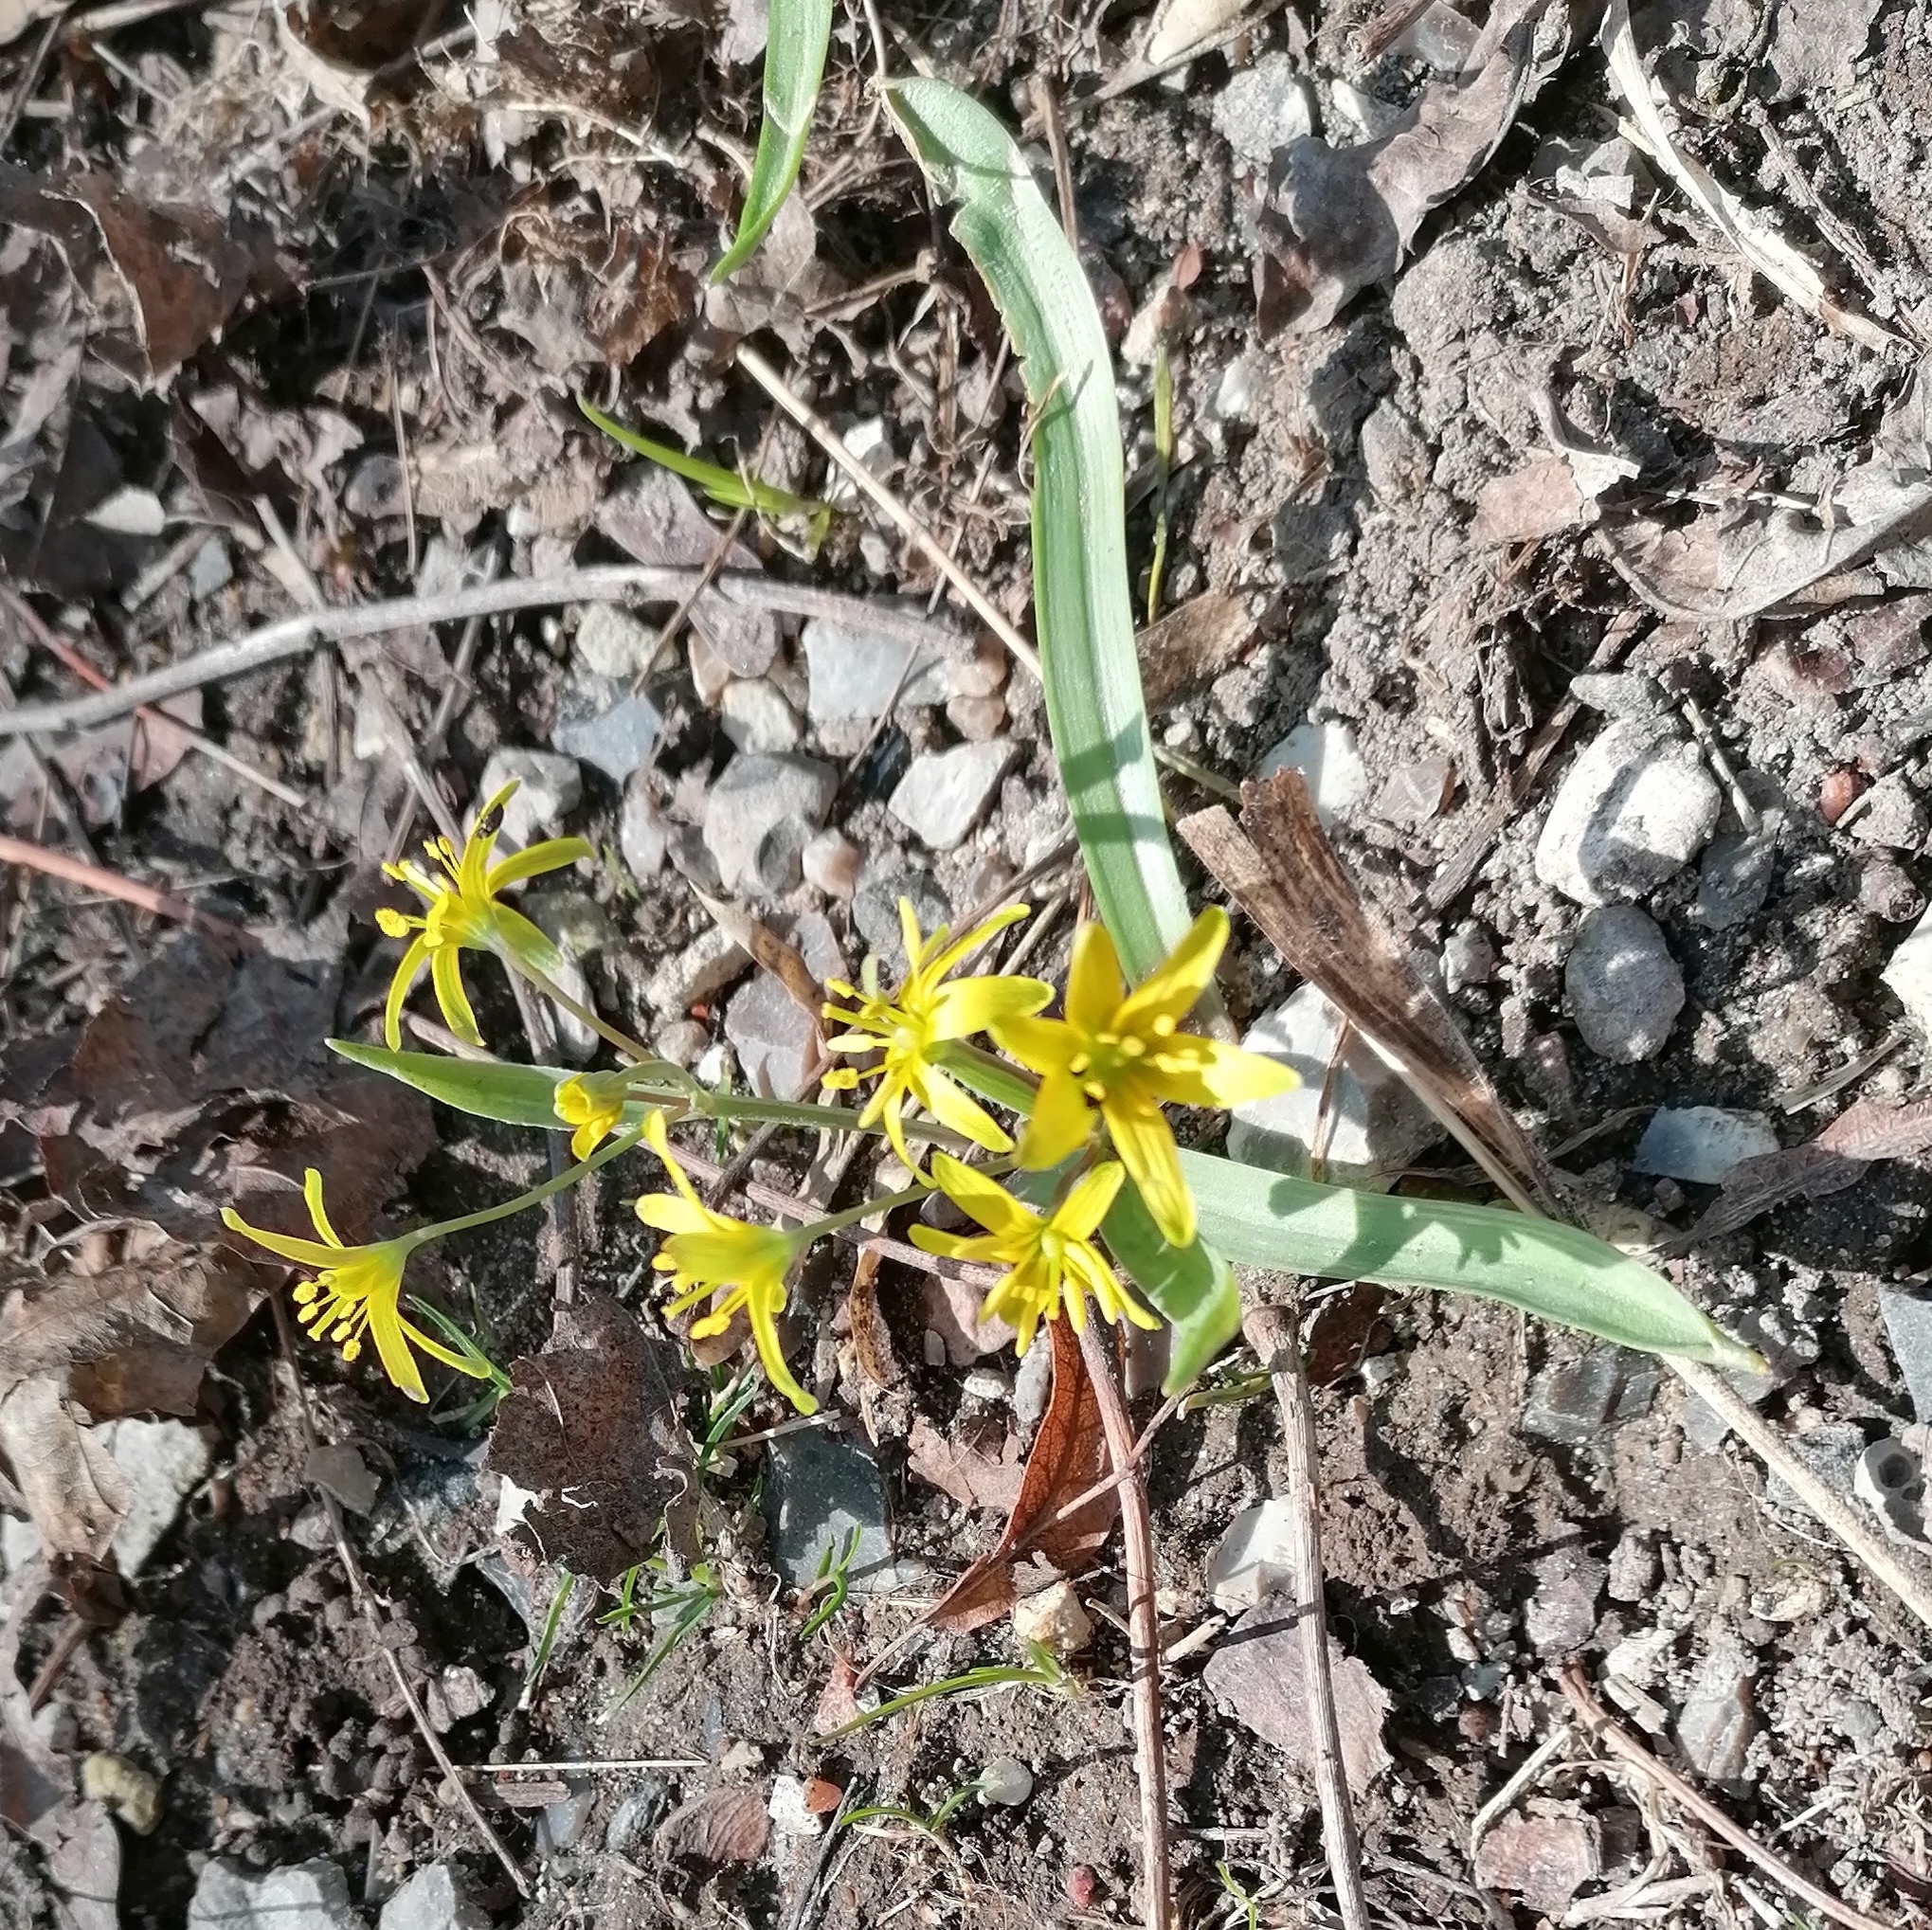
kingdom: Plantae
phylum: Tracheophyta
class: Liliopsida
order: Liliales
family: Liliaceae
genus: Gagea
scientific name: Gagea lutea
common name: Yellow star-of-bethlehem
